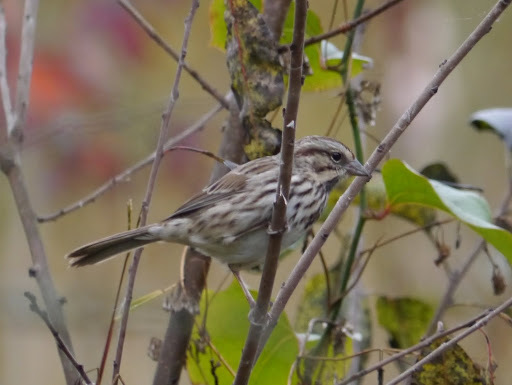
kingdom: Animalia
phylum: Chordata
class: Aves
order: Passeriformes
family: Passerellidae
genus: Melospiza
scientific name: Melospiza melodia
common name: Song sparrow
